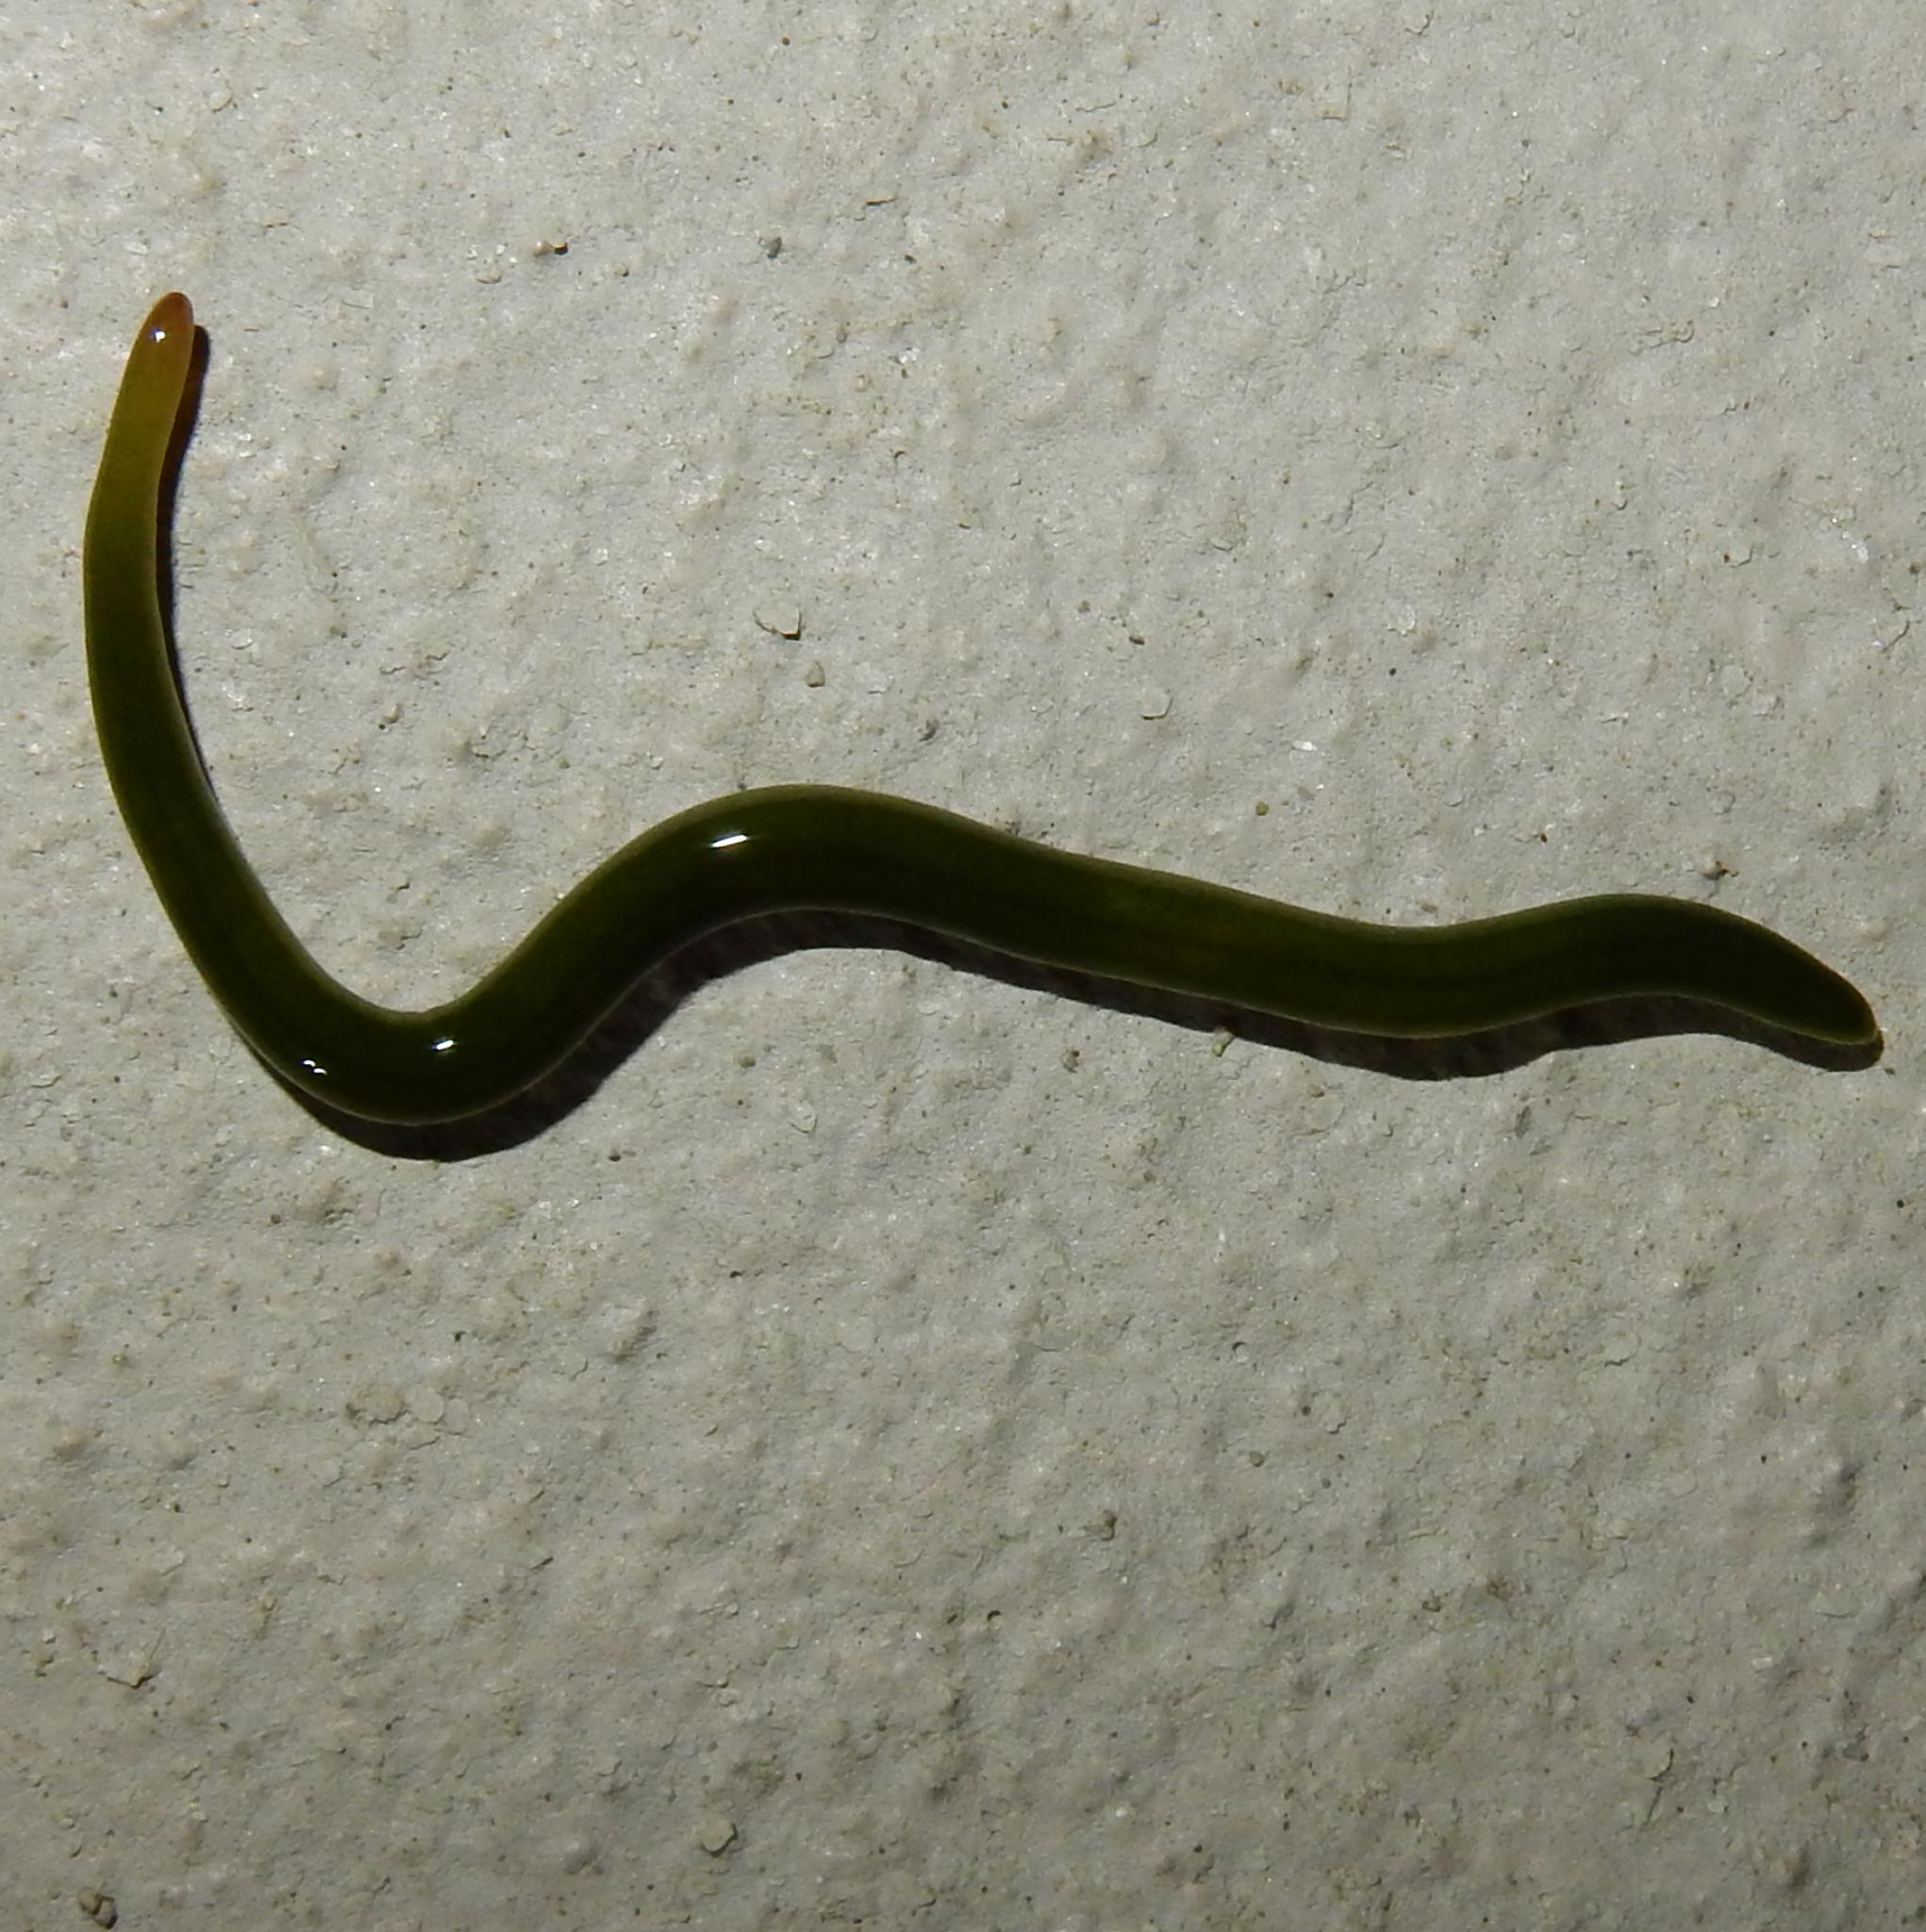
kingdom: Animalia
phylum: Platyhelminthes
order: Tricladida
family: Geoplanidae
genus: Microplana
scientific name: Microplana viridis
